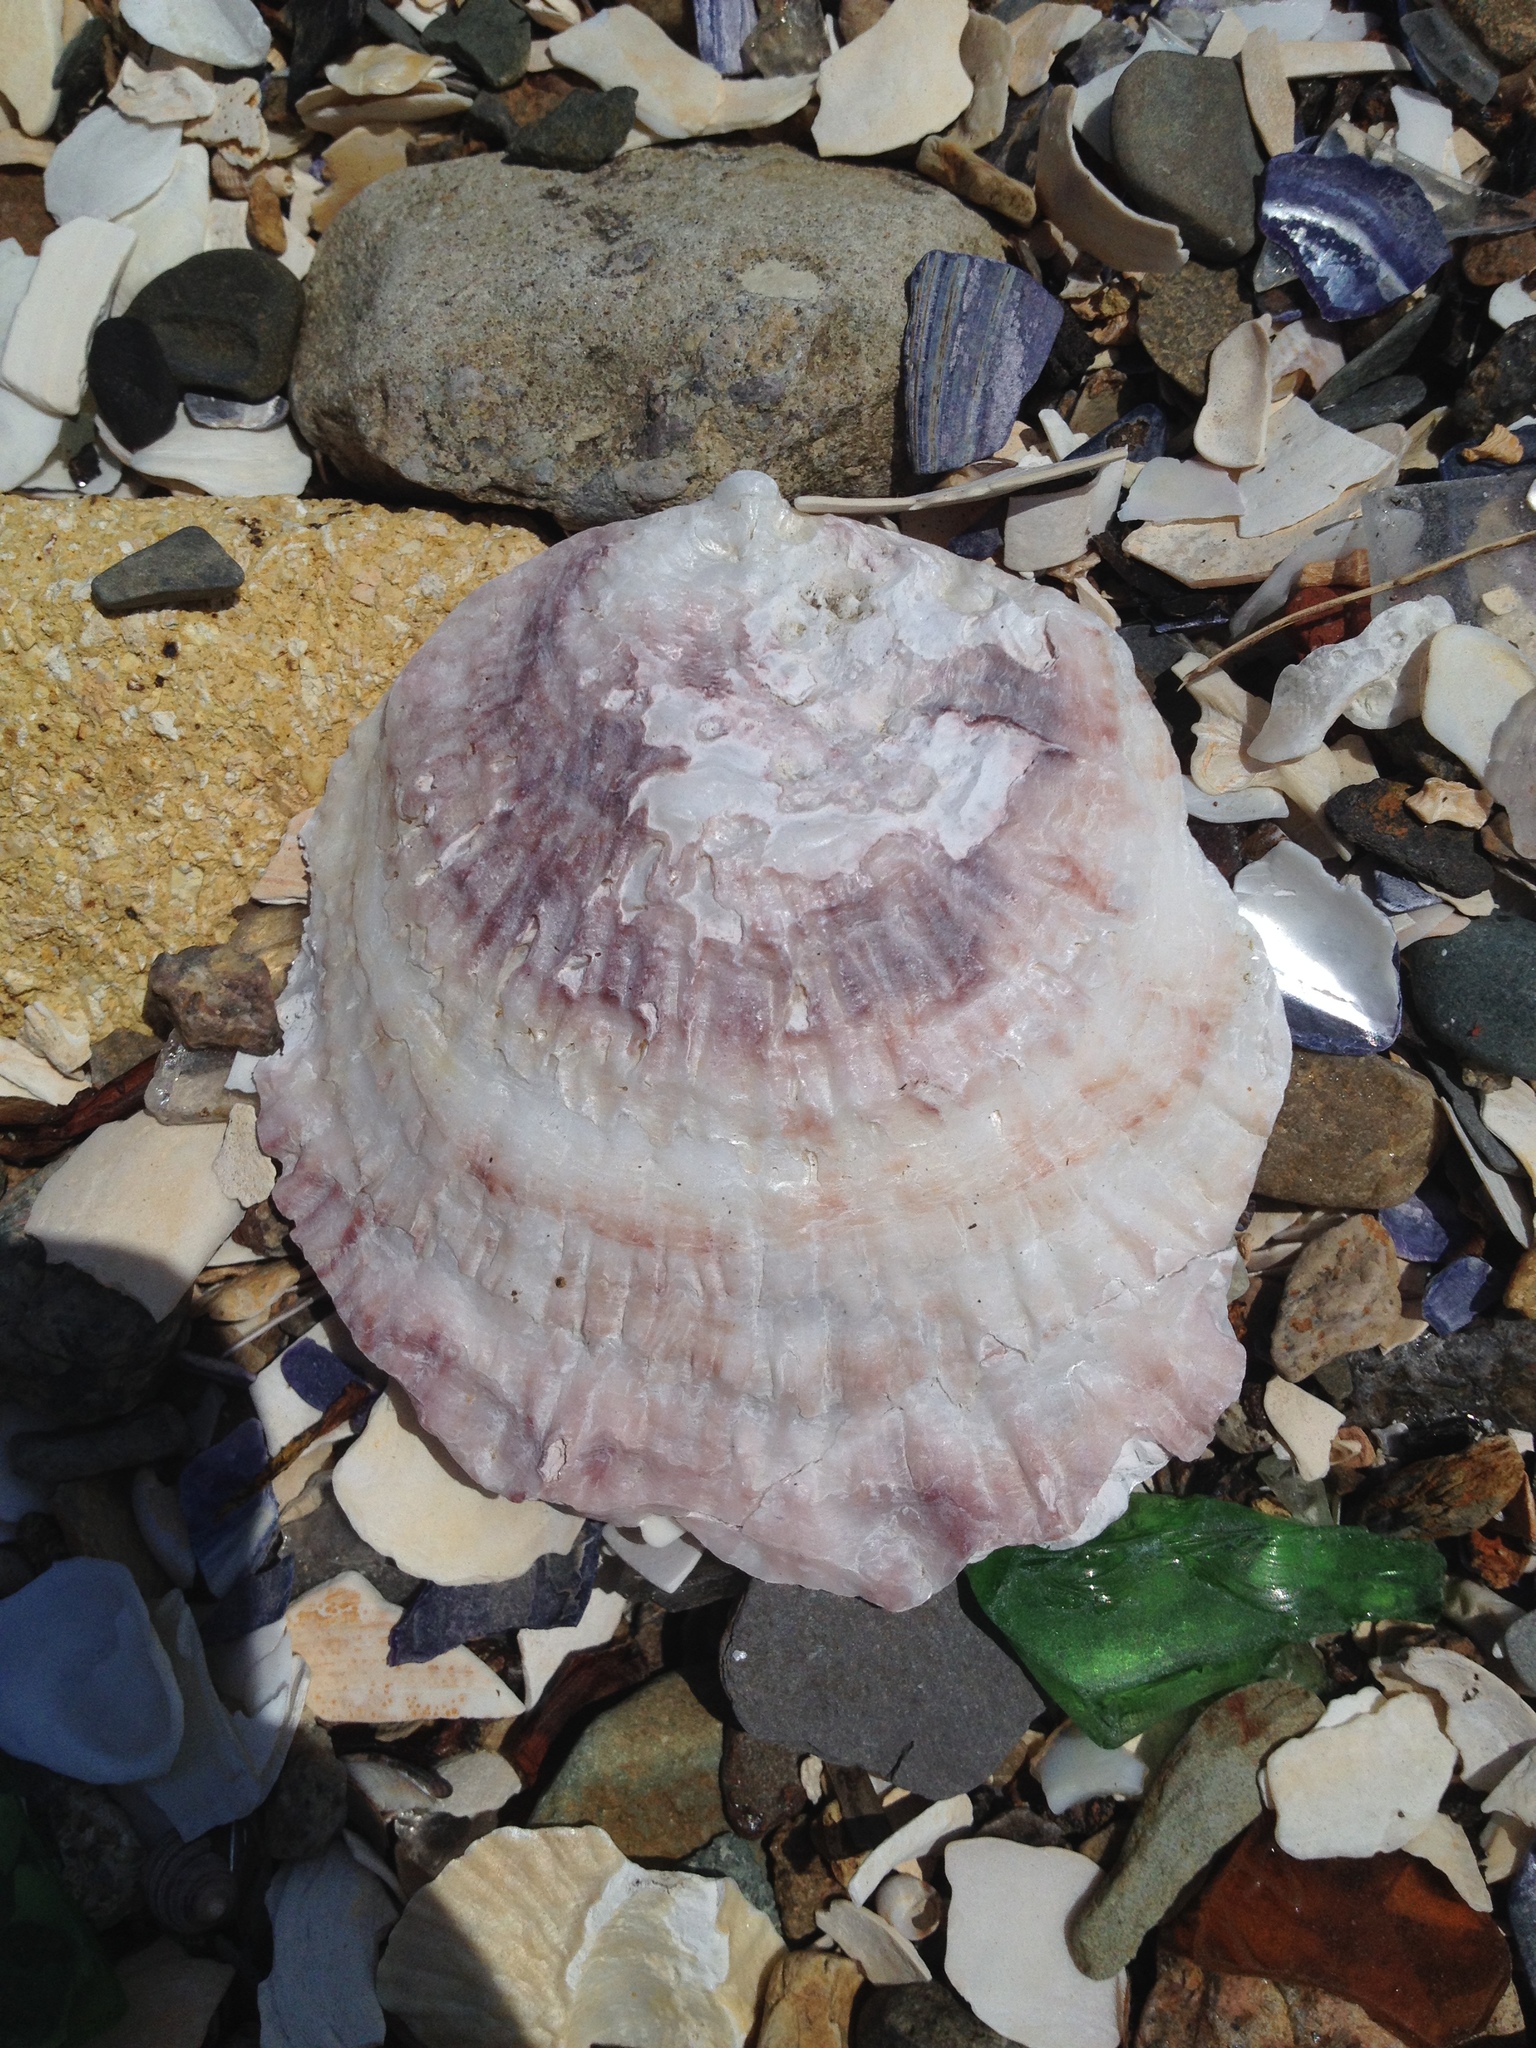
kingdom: Animalia
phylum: Mollusca
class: Bivalvia
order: Ostreida
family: Ostreidae
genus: Ostrea
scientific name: Ostrea edulis
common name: Flat oyster
